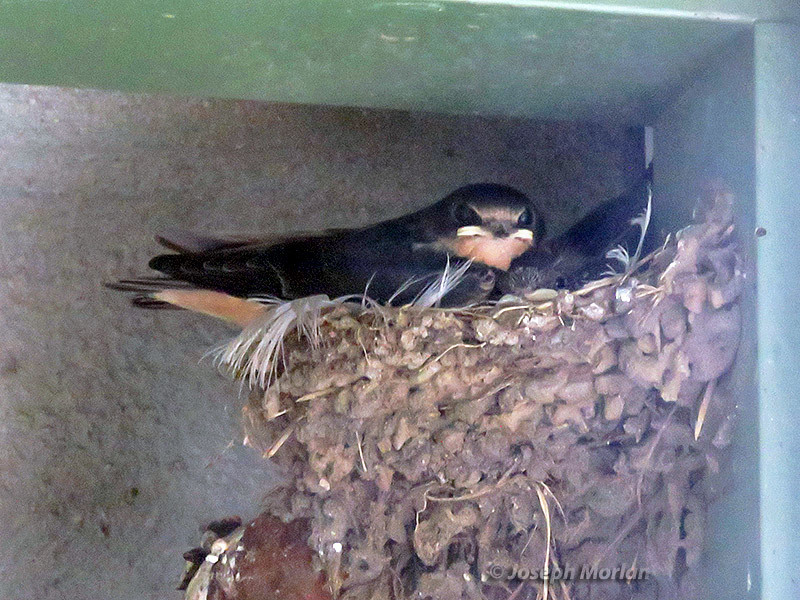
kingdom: Animalia
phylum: Chordata
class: Aves
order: Passeriformes
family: Hirundinidae
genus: Hirundo
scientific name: Hirundo rustica
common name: Barn swallow
